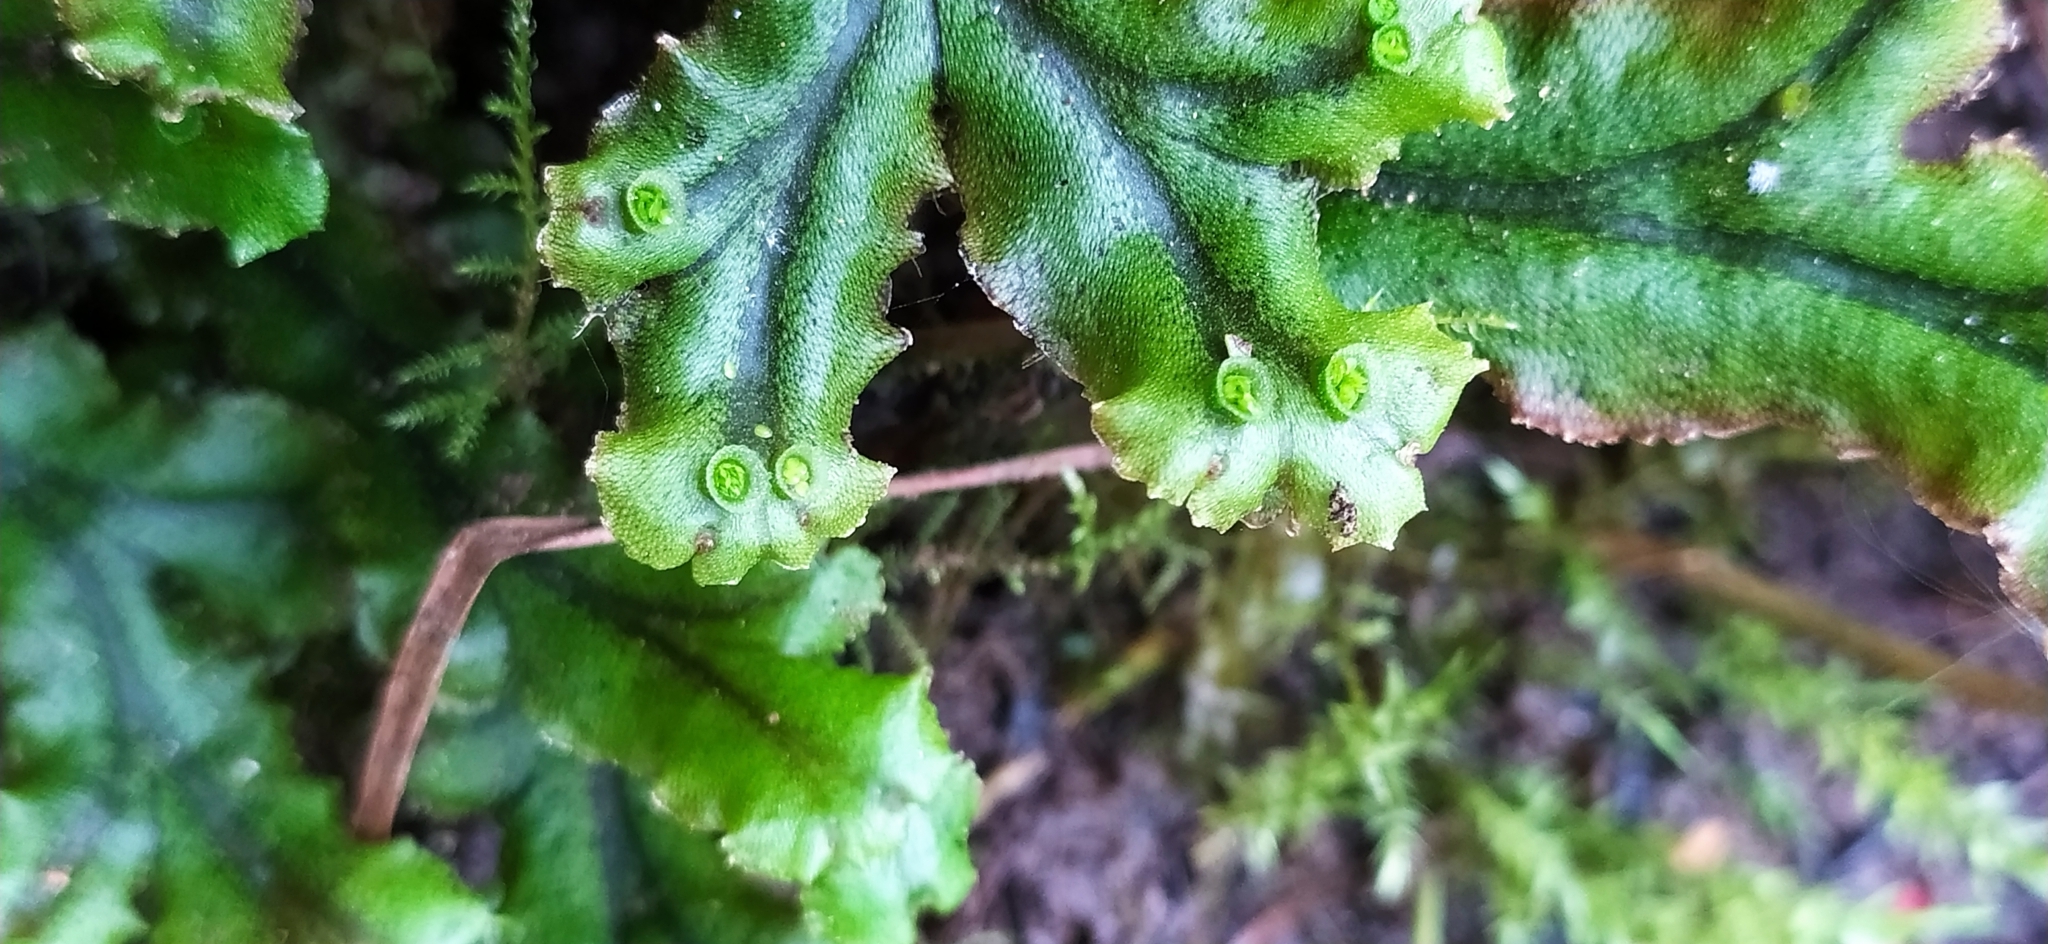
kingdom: Plantae
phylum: Marchantiophyta
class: Marchantiopsida
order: Marchantiales
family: Marchantiaceae
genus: Marchantia
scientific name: Marchantia polymorpha
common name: Common liverwort
